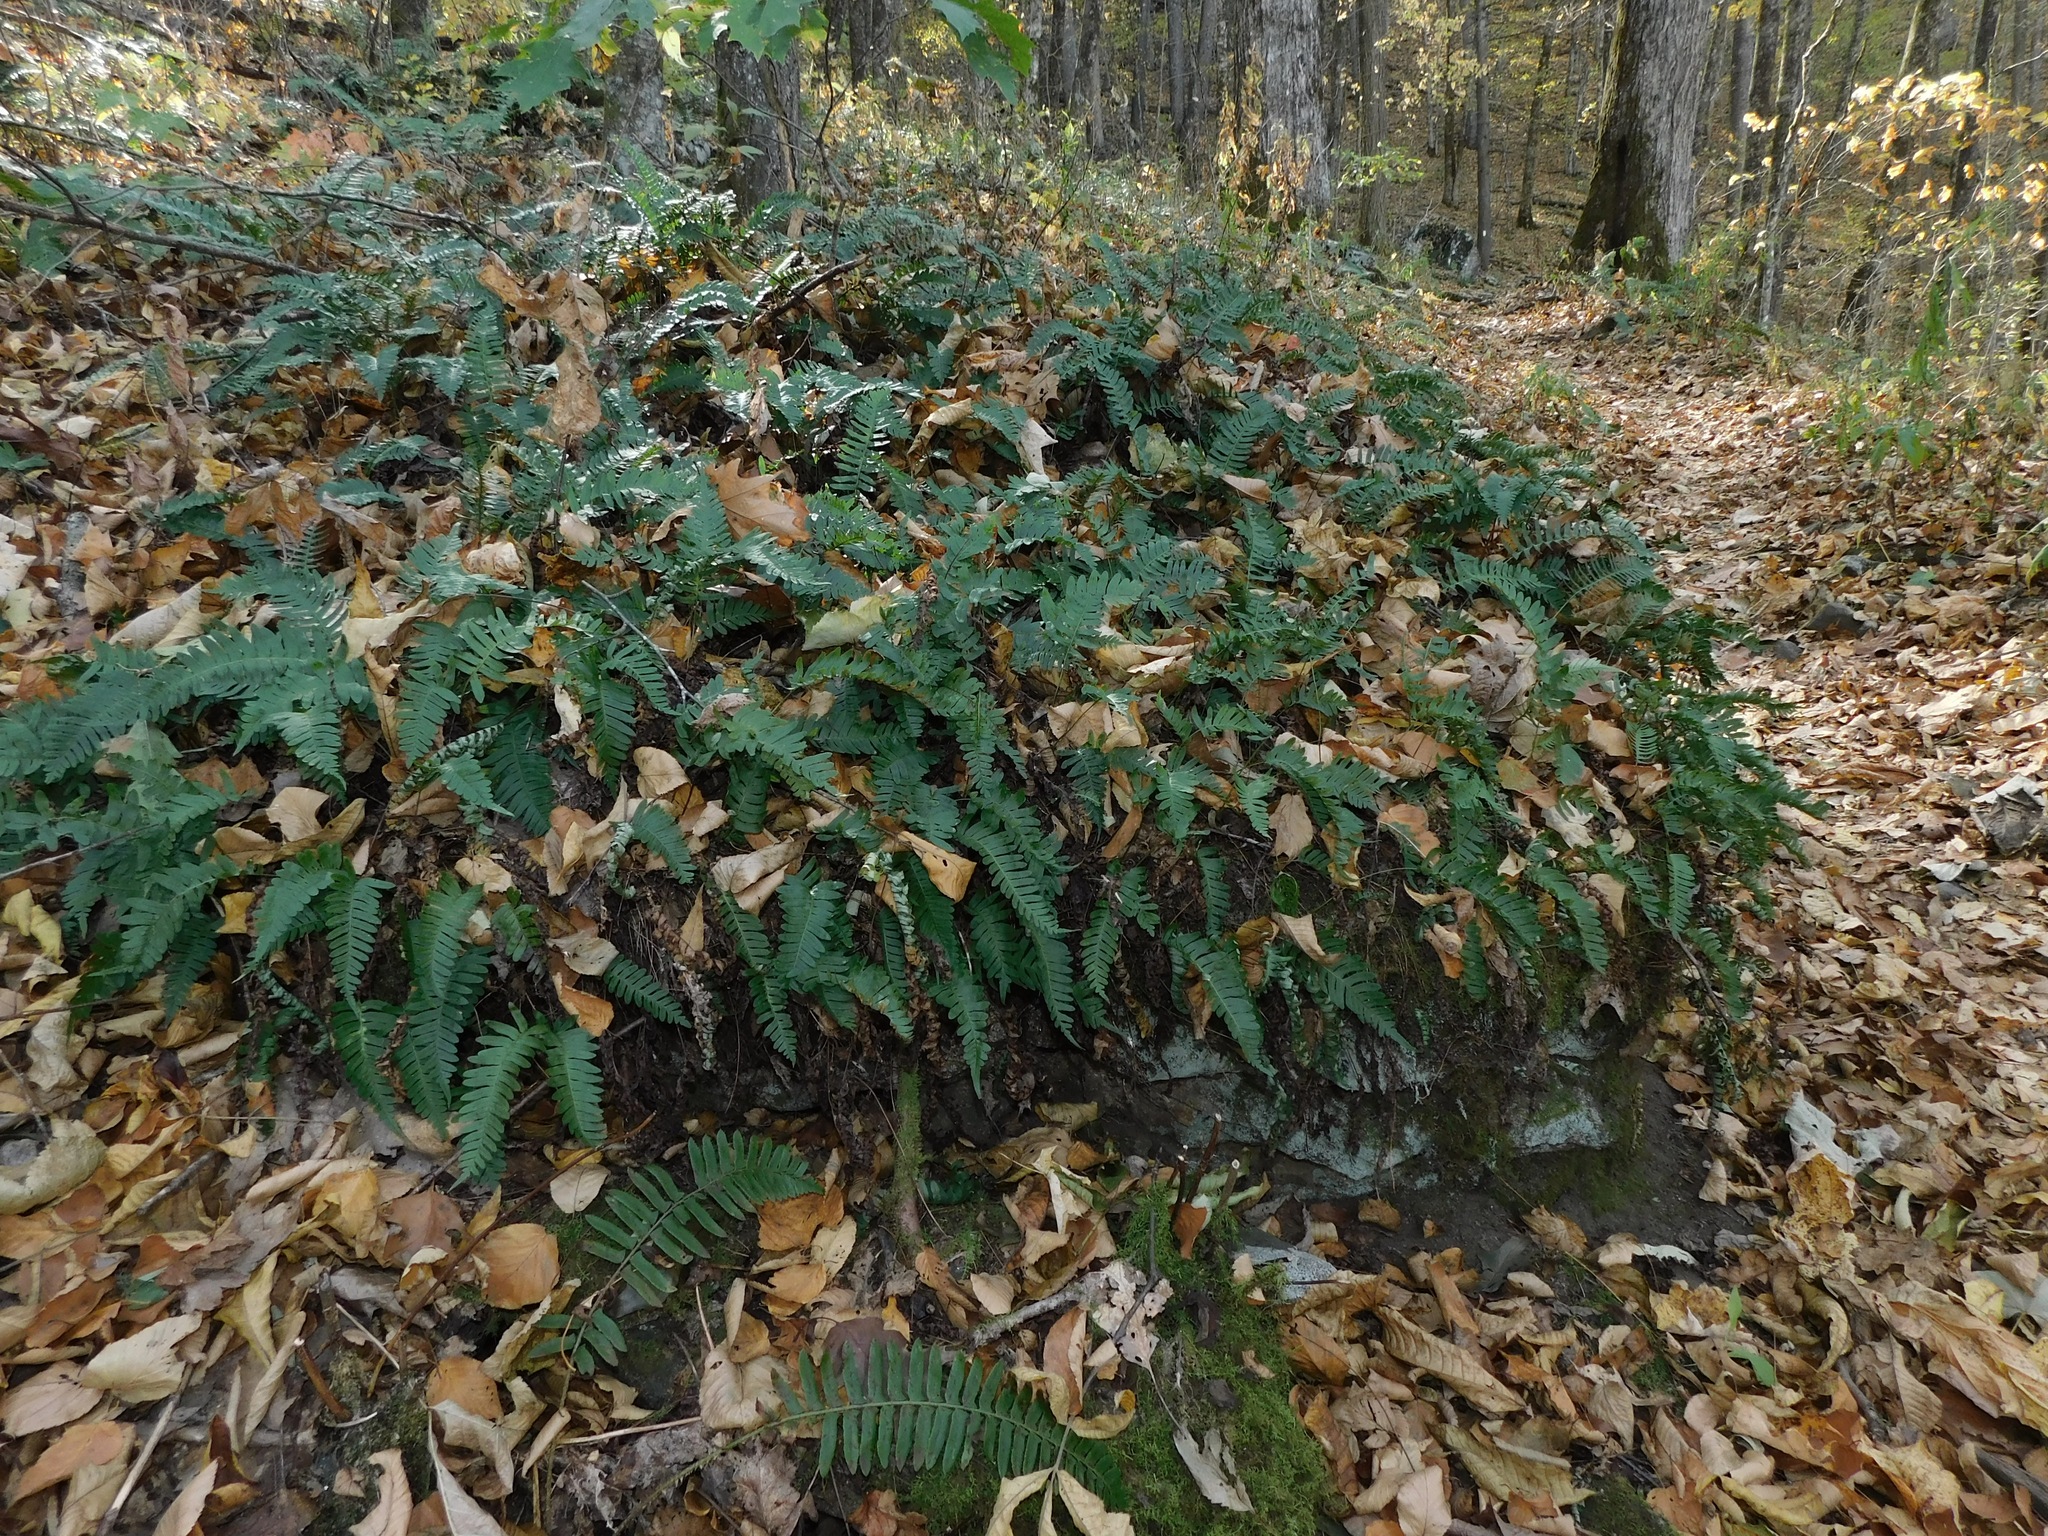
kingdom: Plantae
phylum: Tracheophyta
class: Polypodiopsida
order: Polypodiales
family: Polypodiaceae
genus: Polypodium
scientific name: Polypodium appalachianum
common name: Appalachian polypody
